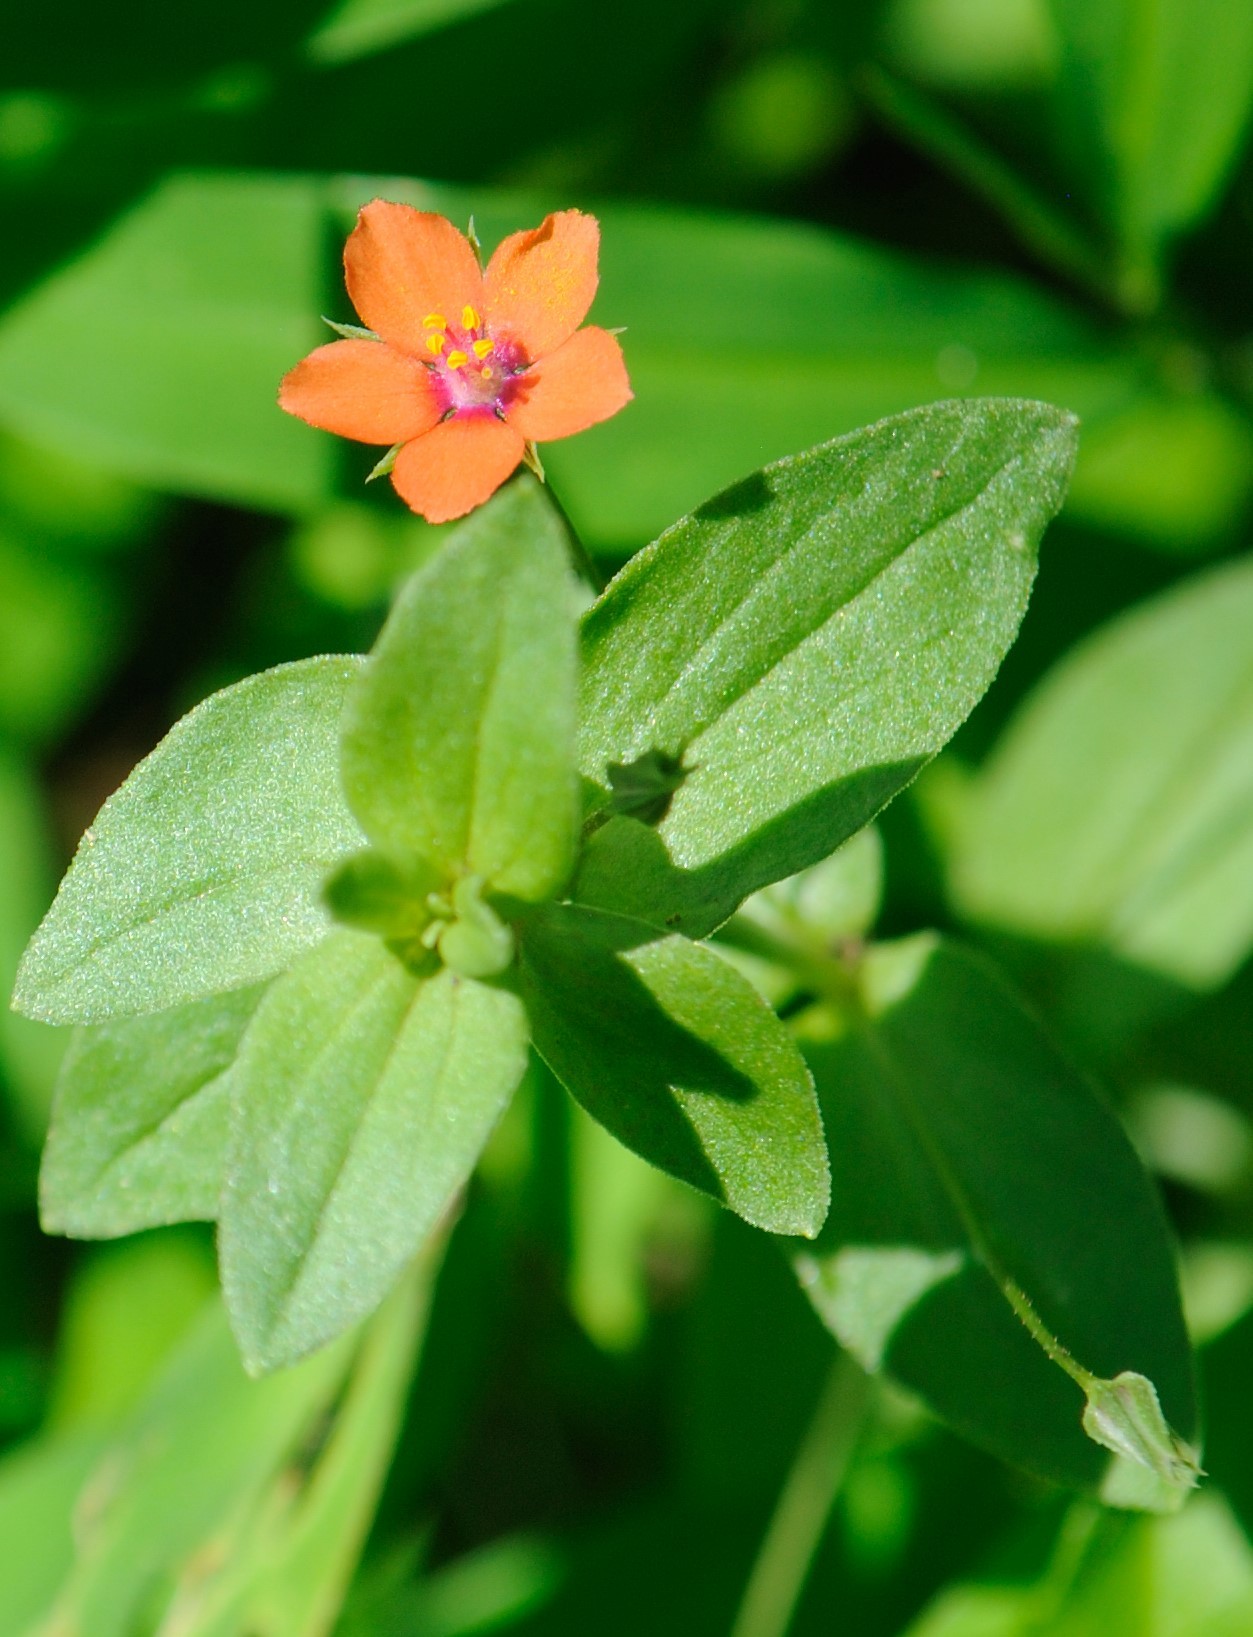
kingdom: Plantae
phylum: Tracheophyta
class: Magnoliopsida
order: Ericales
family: Primulaceae
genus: Lysimachia
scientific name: Lysimachia arvensis
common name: Scarlet pimpernel
